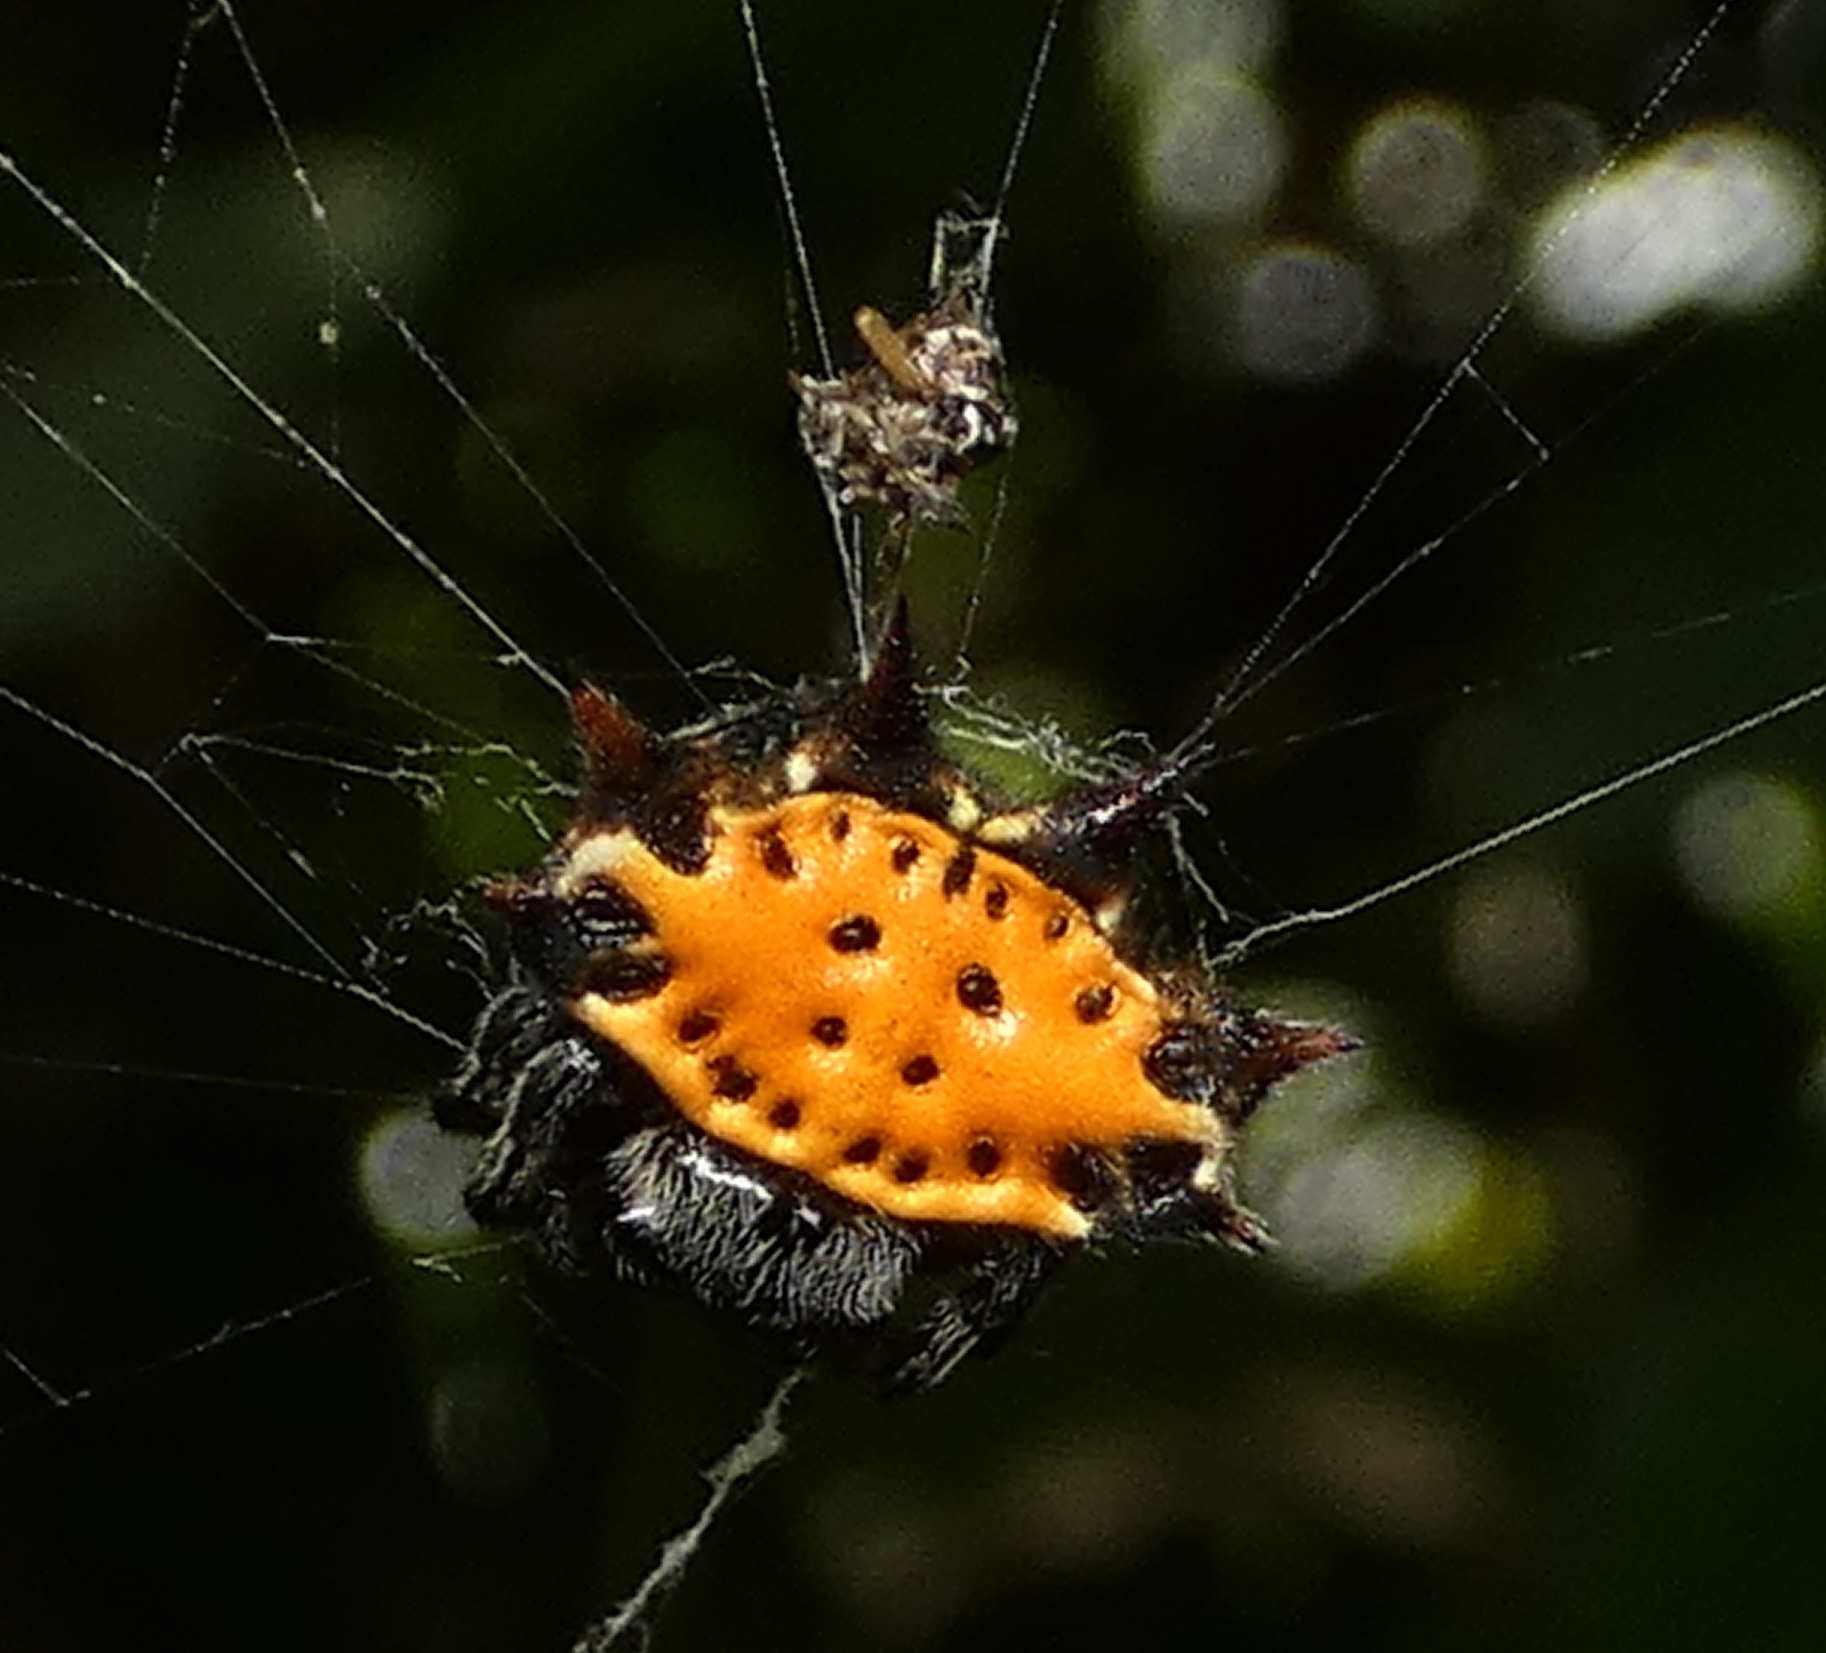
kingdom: Animalia
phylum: Arthropoda
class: Arachnida
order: Araneae
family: Araneidae
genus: Gasteracantha
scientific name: Gasteracantha cancriformis
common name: Orb weavers
